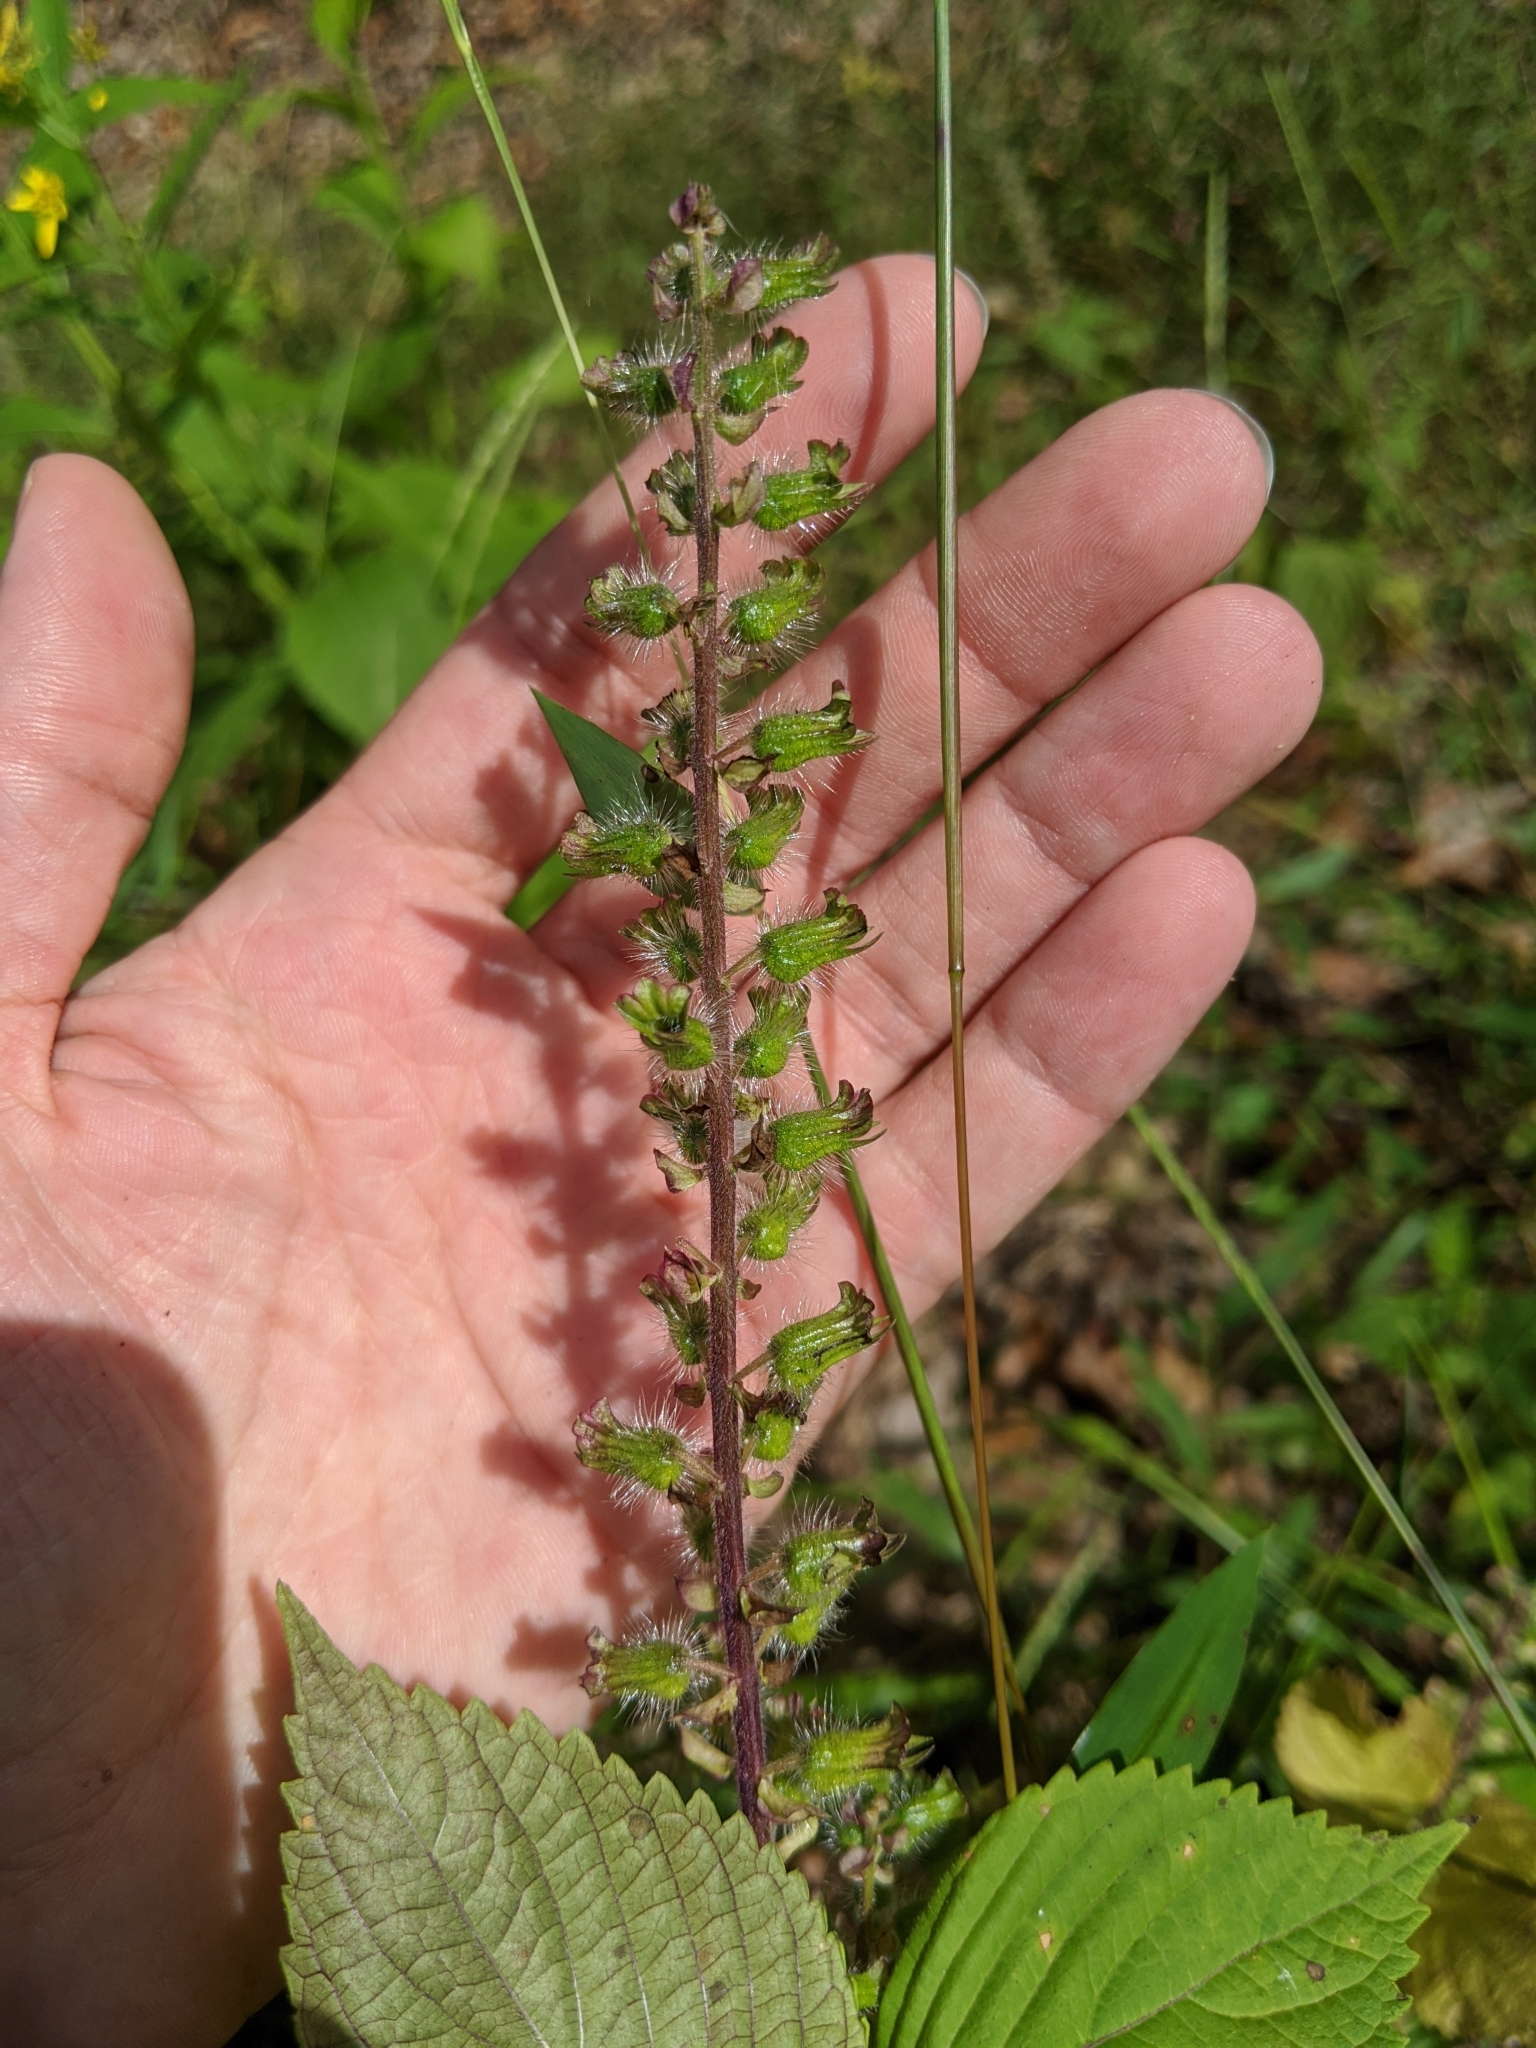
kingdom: Plantae
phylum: Tracheophyta
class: Magnoliopsida
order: Lamiales
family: Lamiaceae
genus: Perilla
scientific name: Perilla frutescens
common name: Perilla
